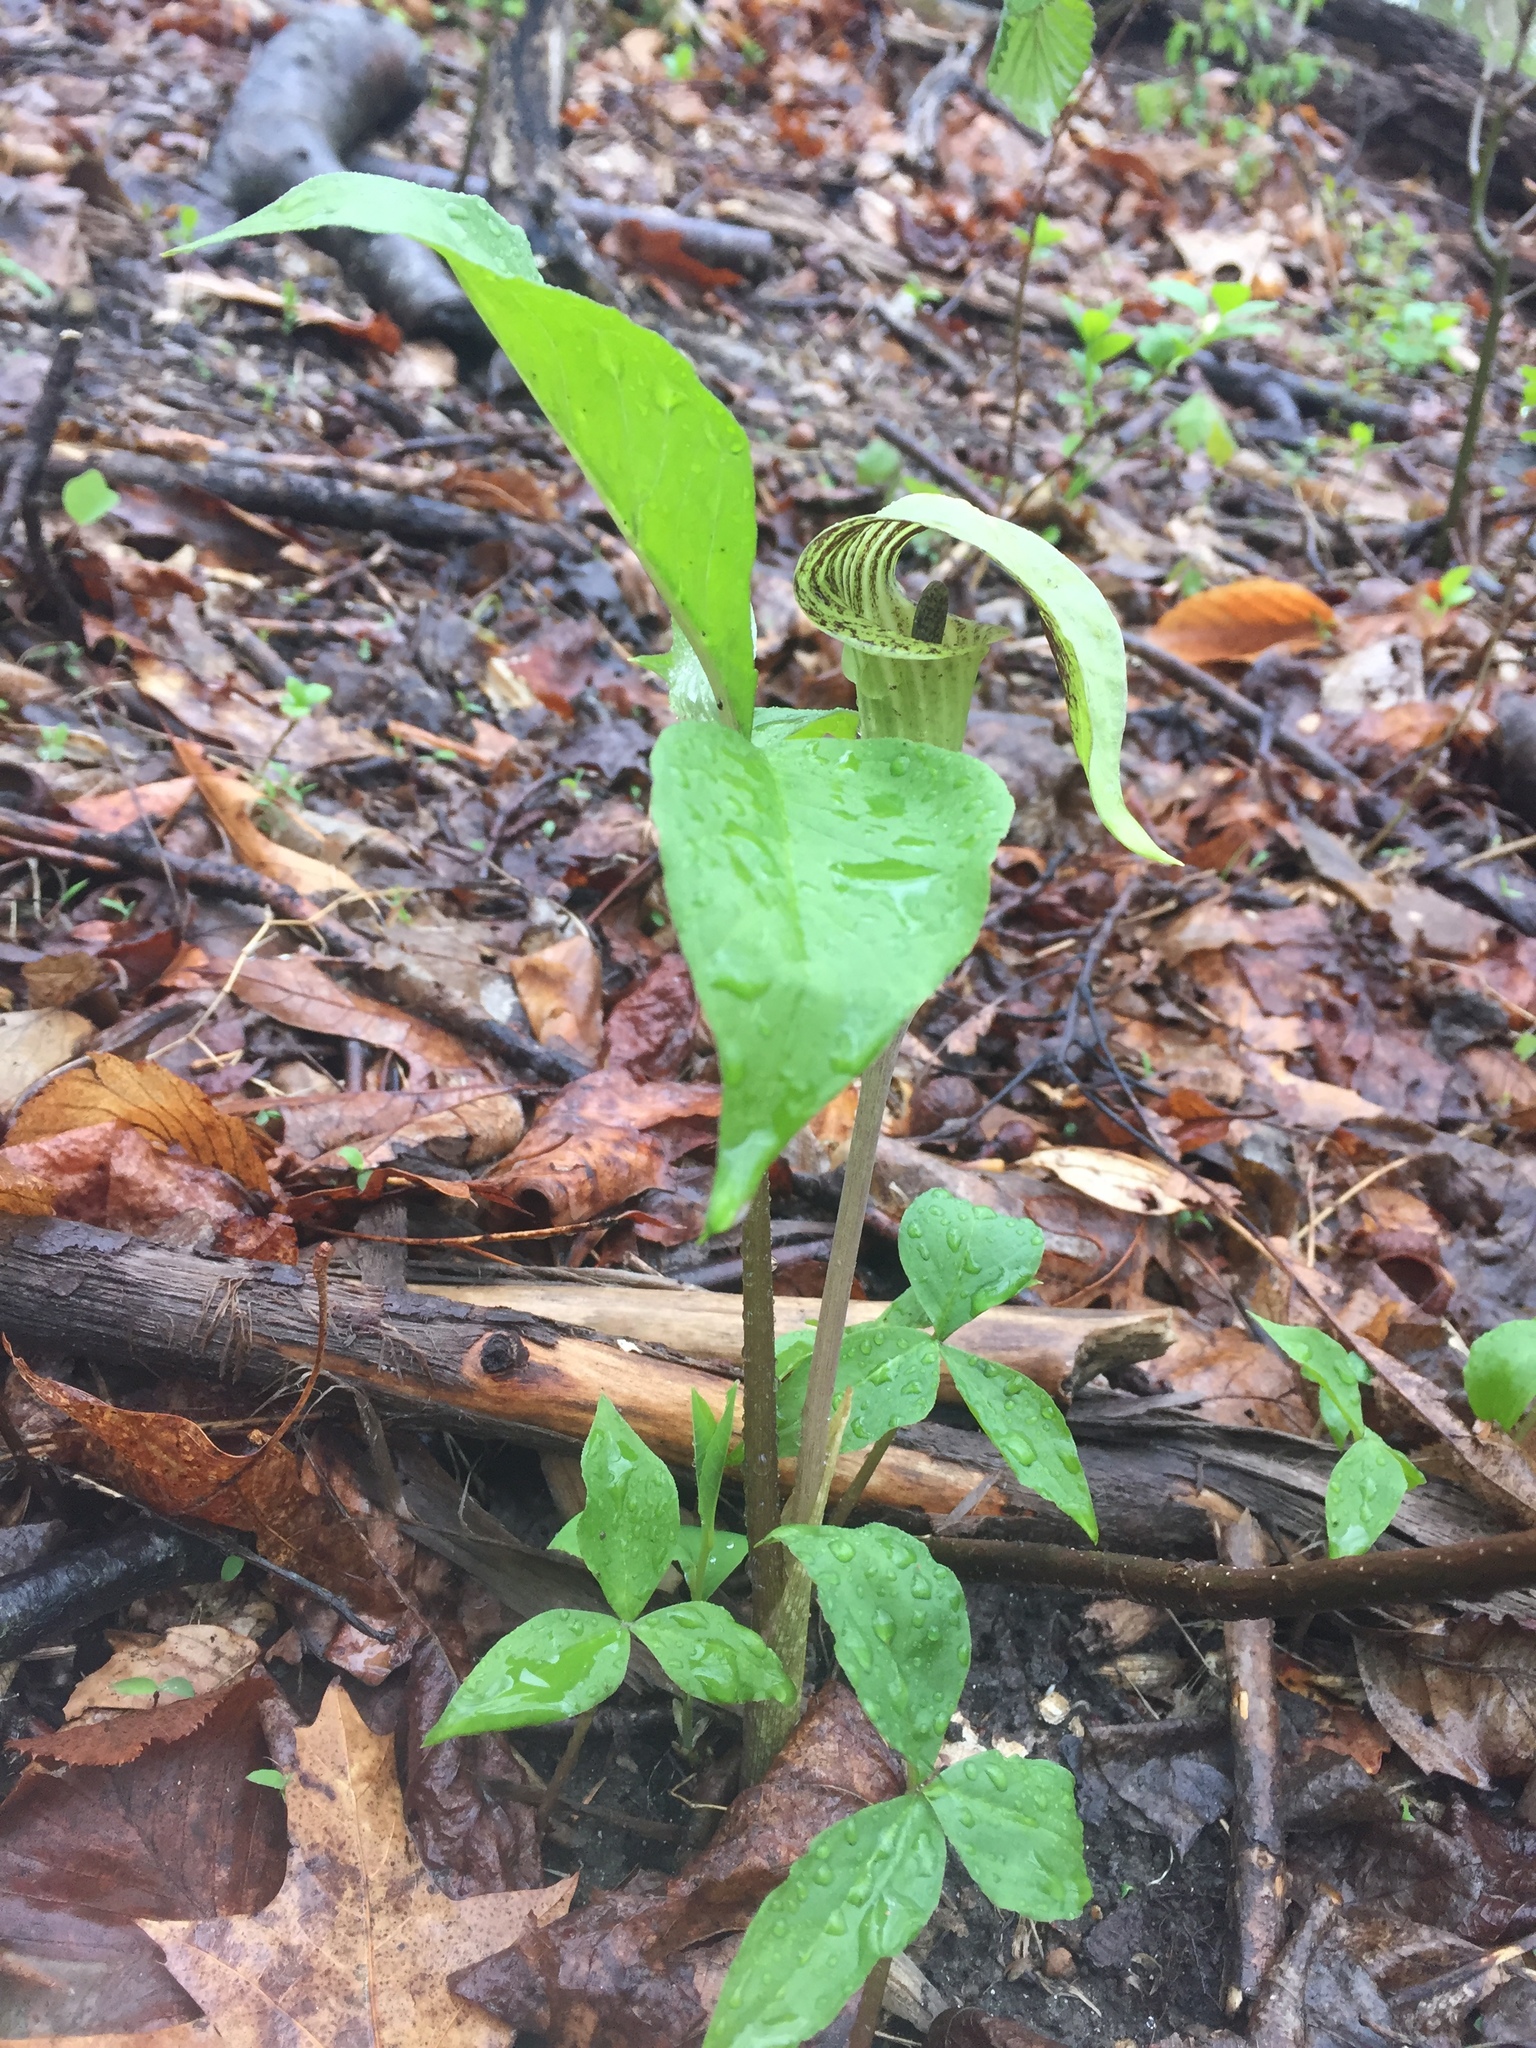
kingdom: Plantae
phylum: Tracheophyta
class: Liliopsida
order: Alismatales
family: Araceae
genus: Arisaema
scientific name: Arisaema triphyllum
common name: Jack-in-the-pulpit
